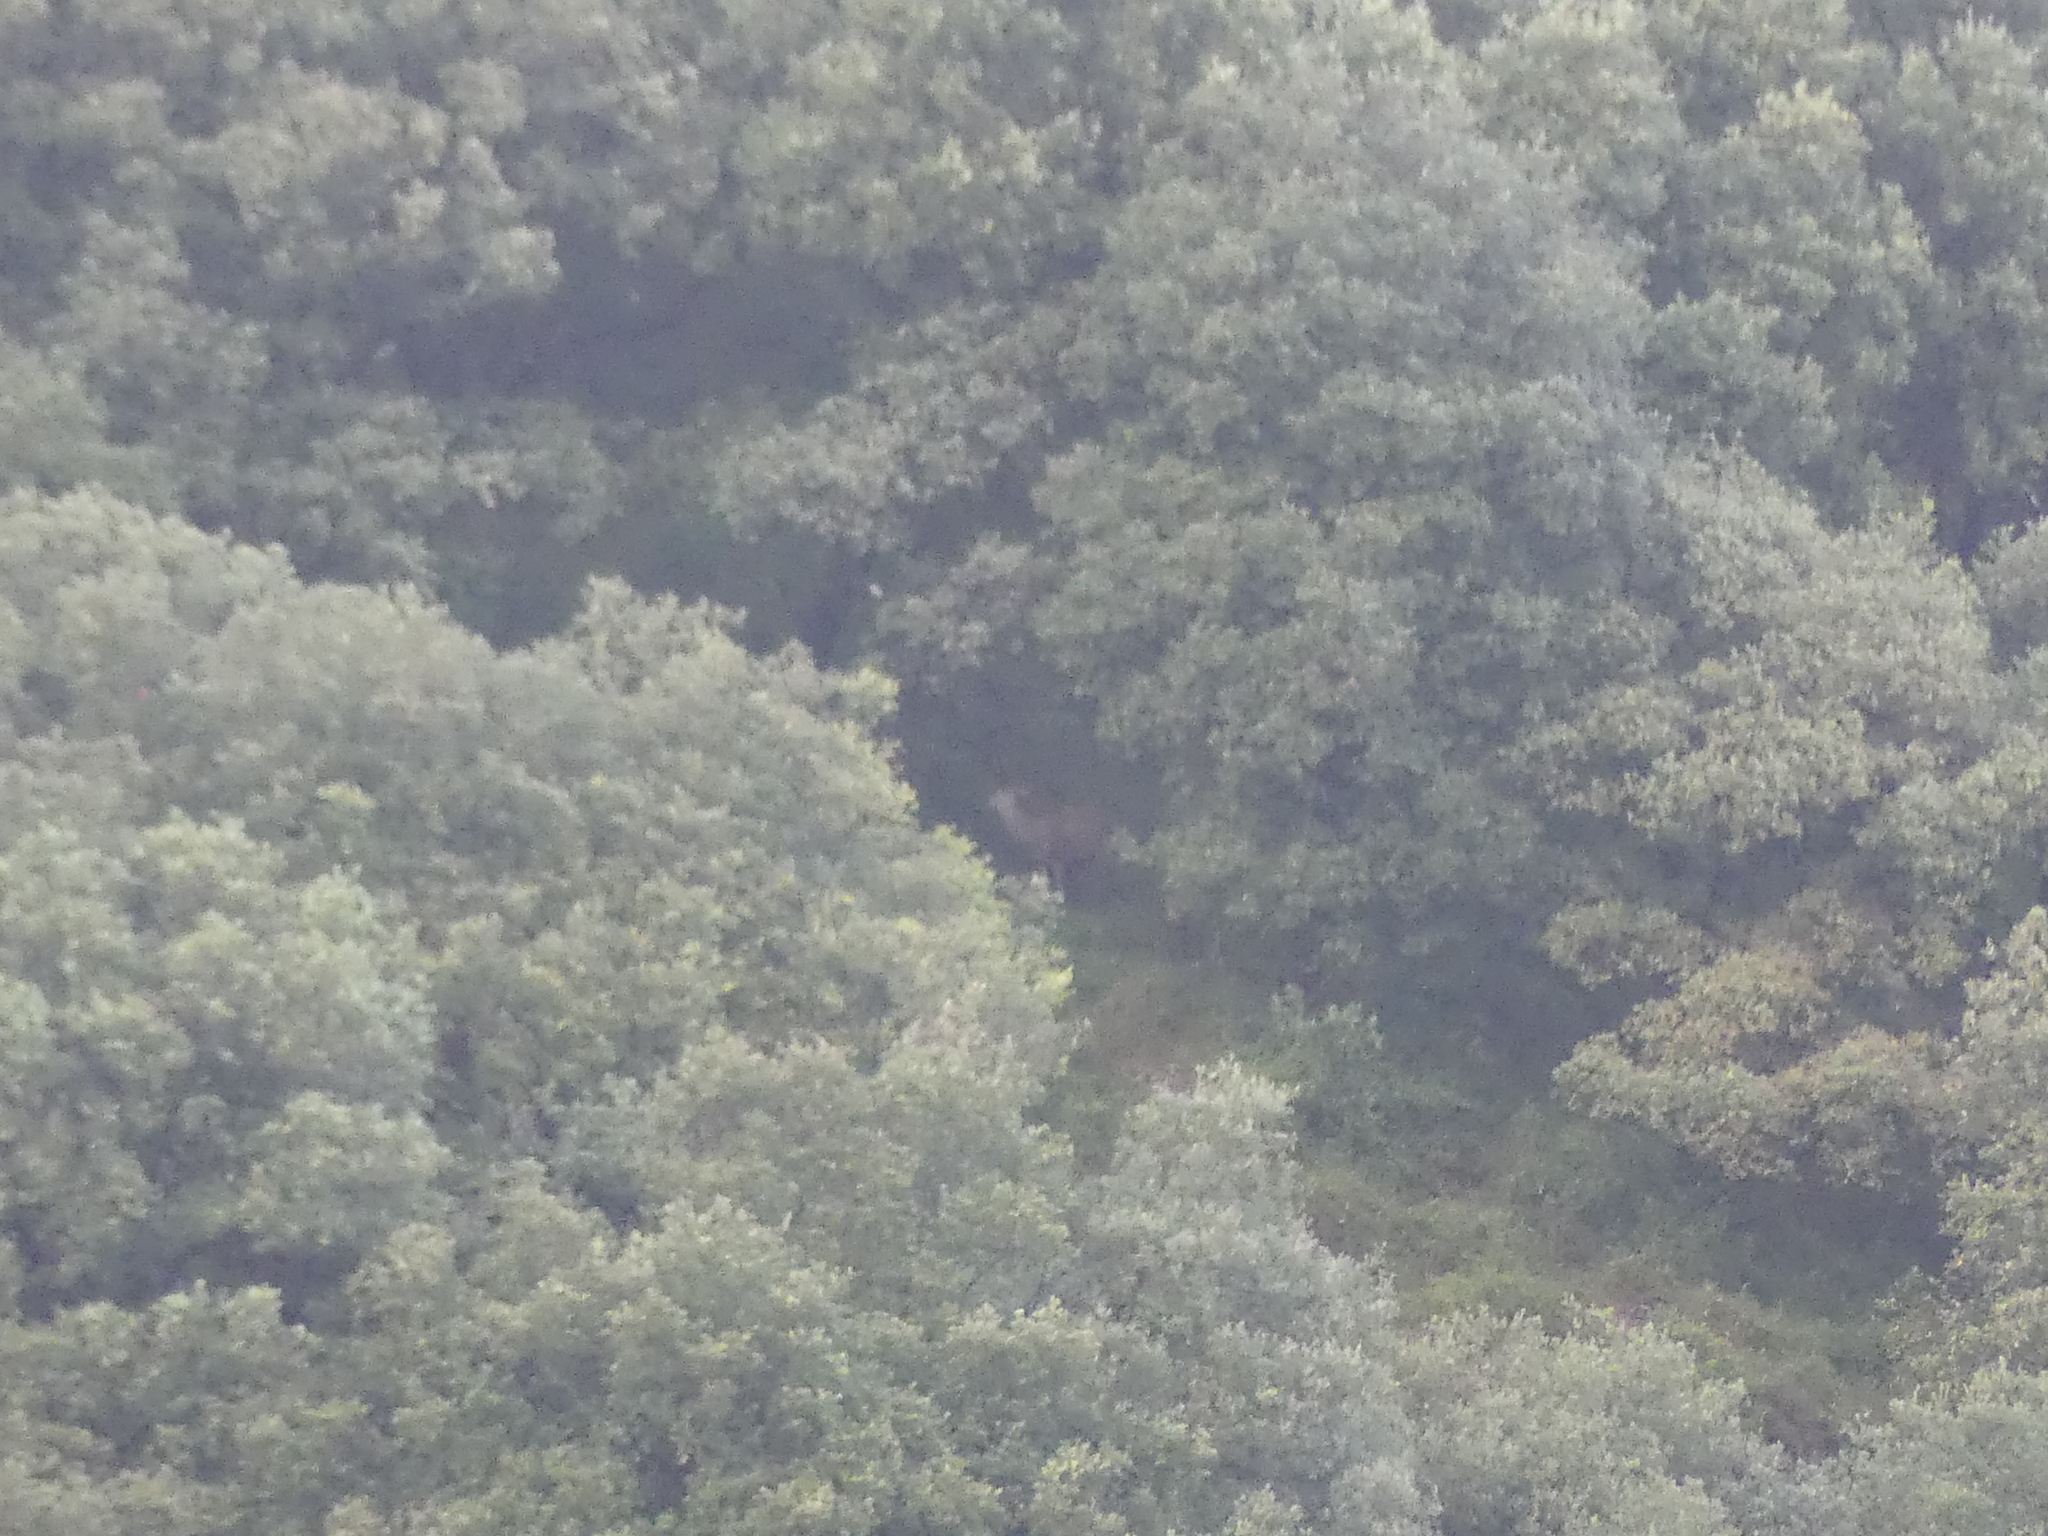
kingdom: Animalia
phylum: Chordata
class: Mammalia
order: Artiodactyla
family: Cervidae
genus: Cervus
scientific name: Cervus elaphus
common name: Red deer
